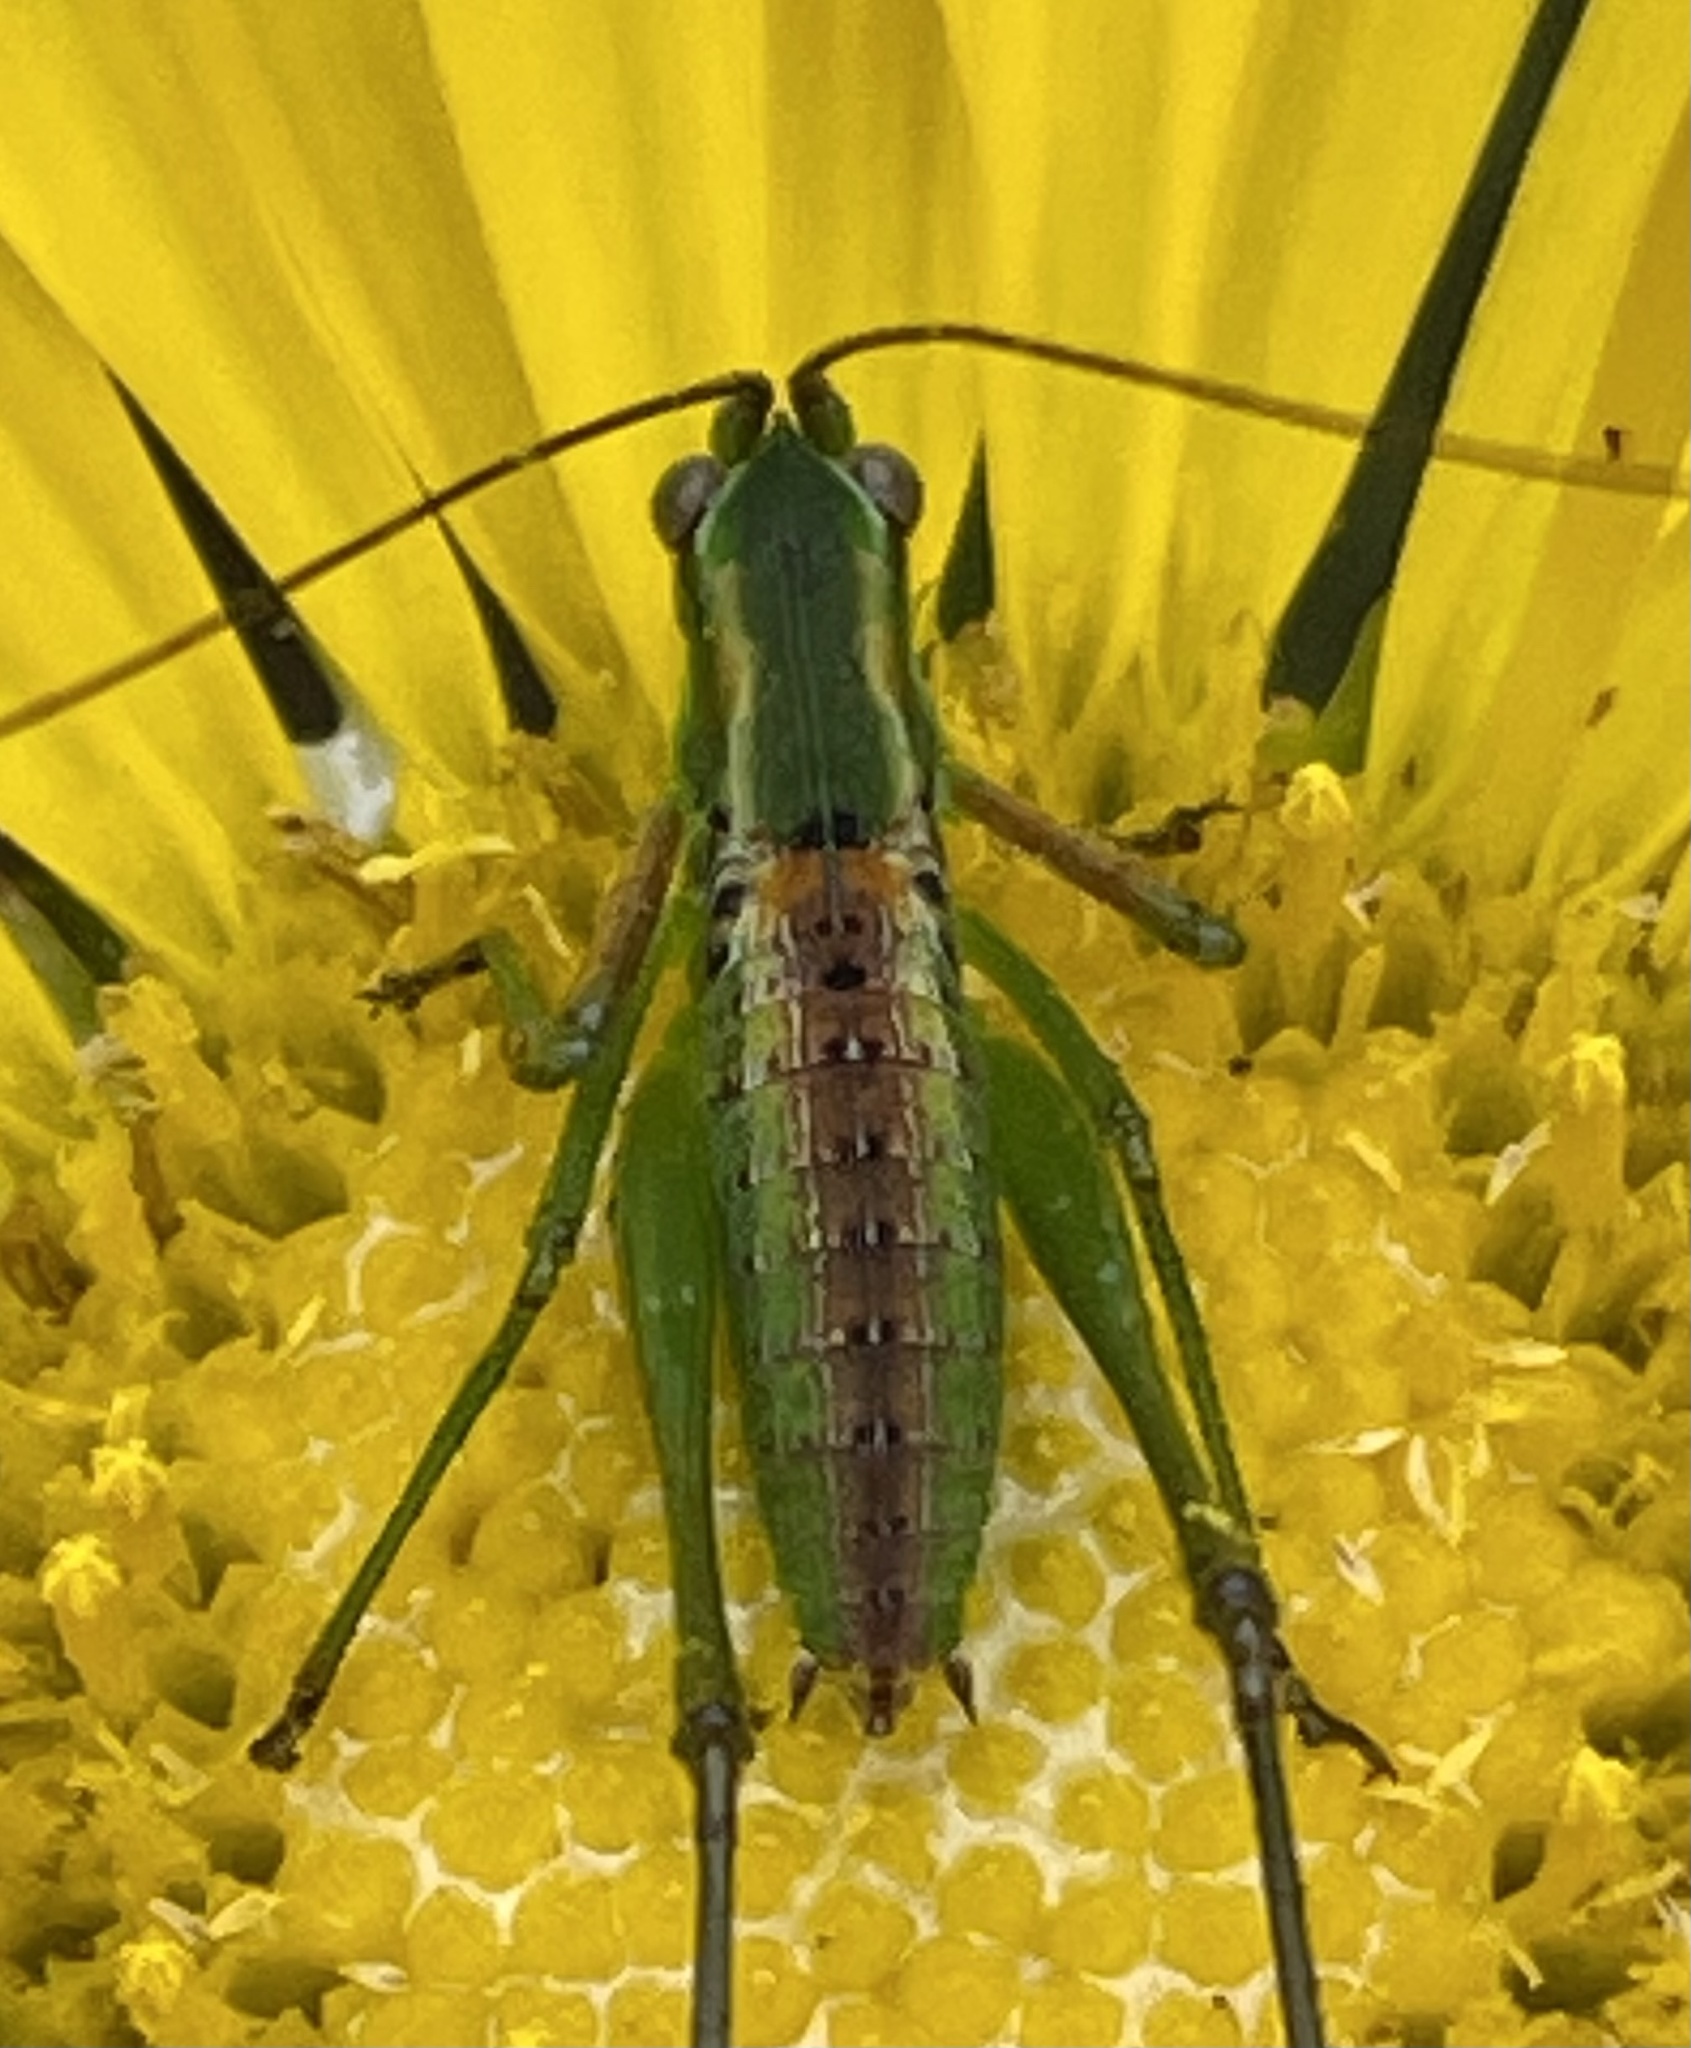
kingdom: Animalia
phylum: Arthropoda
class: Insecta
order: Orthoptera
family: Tettigoniidae
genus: Scudderia
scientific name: Scudderia
